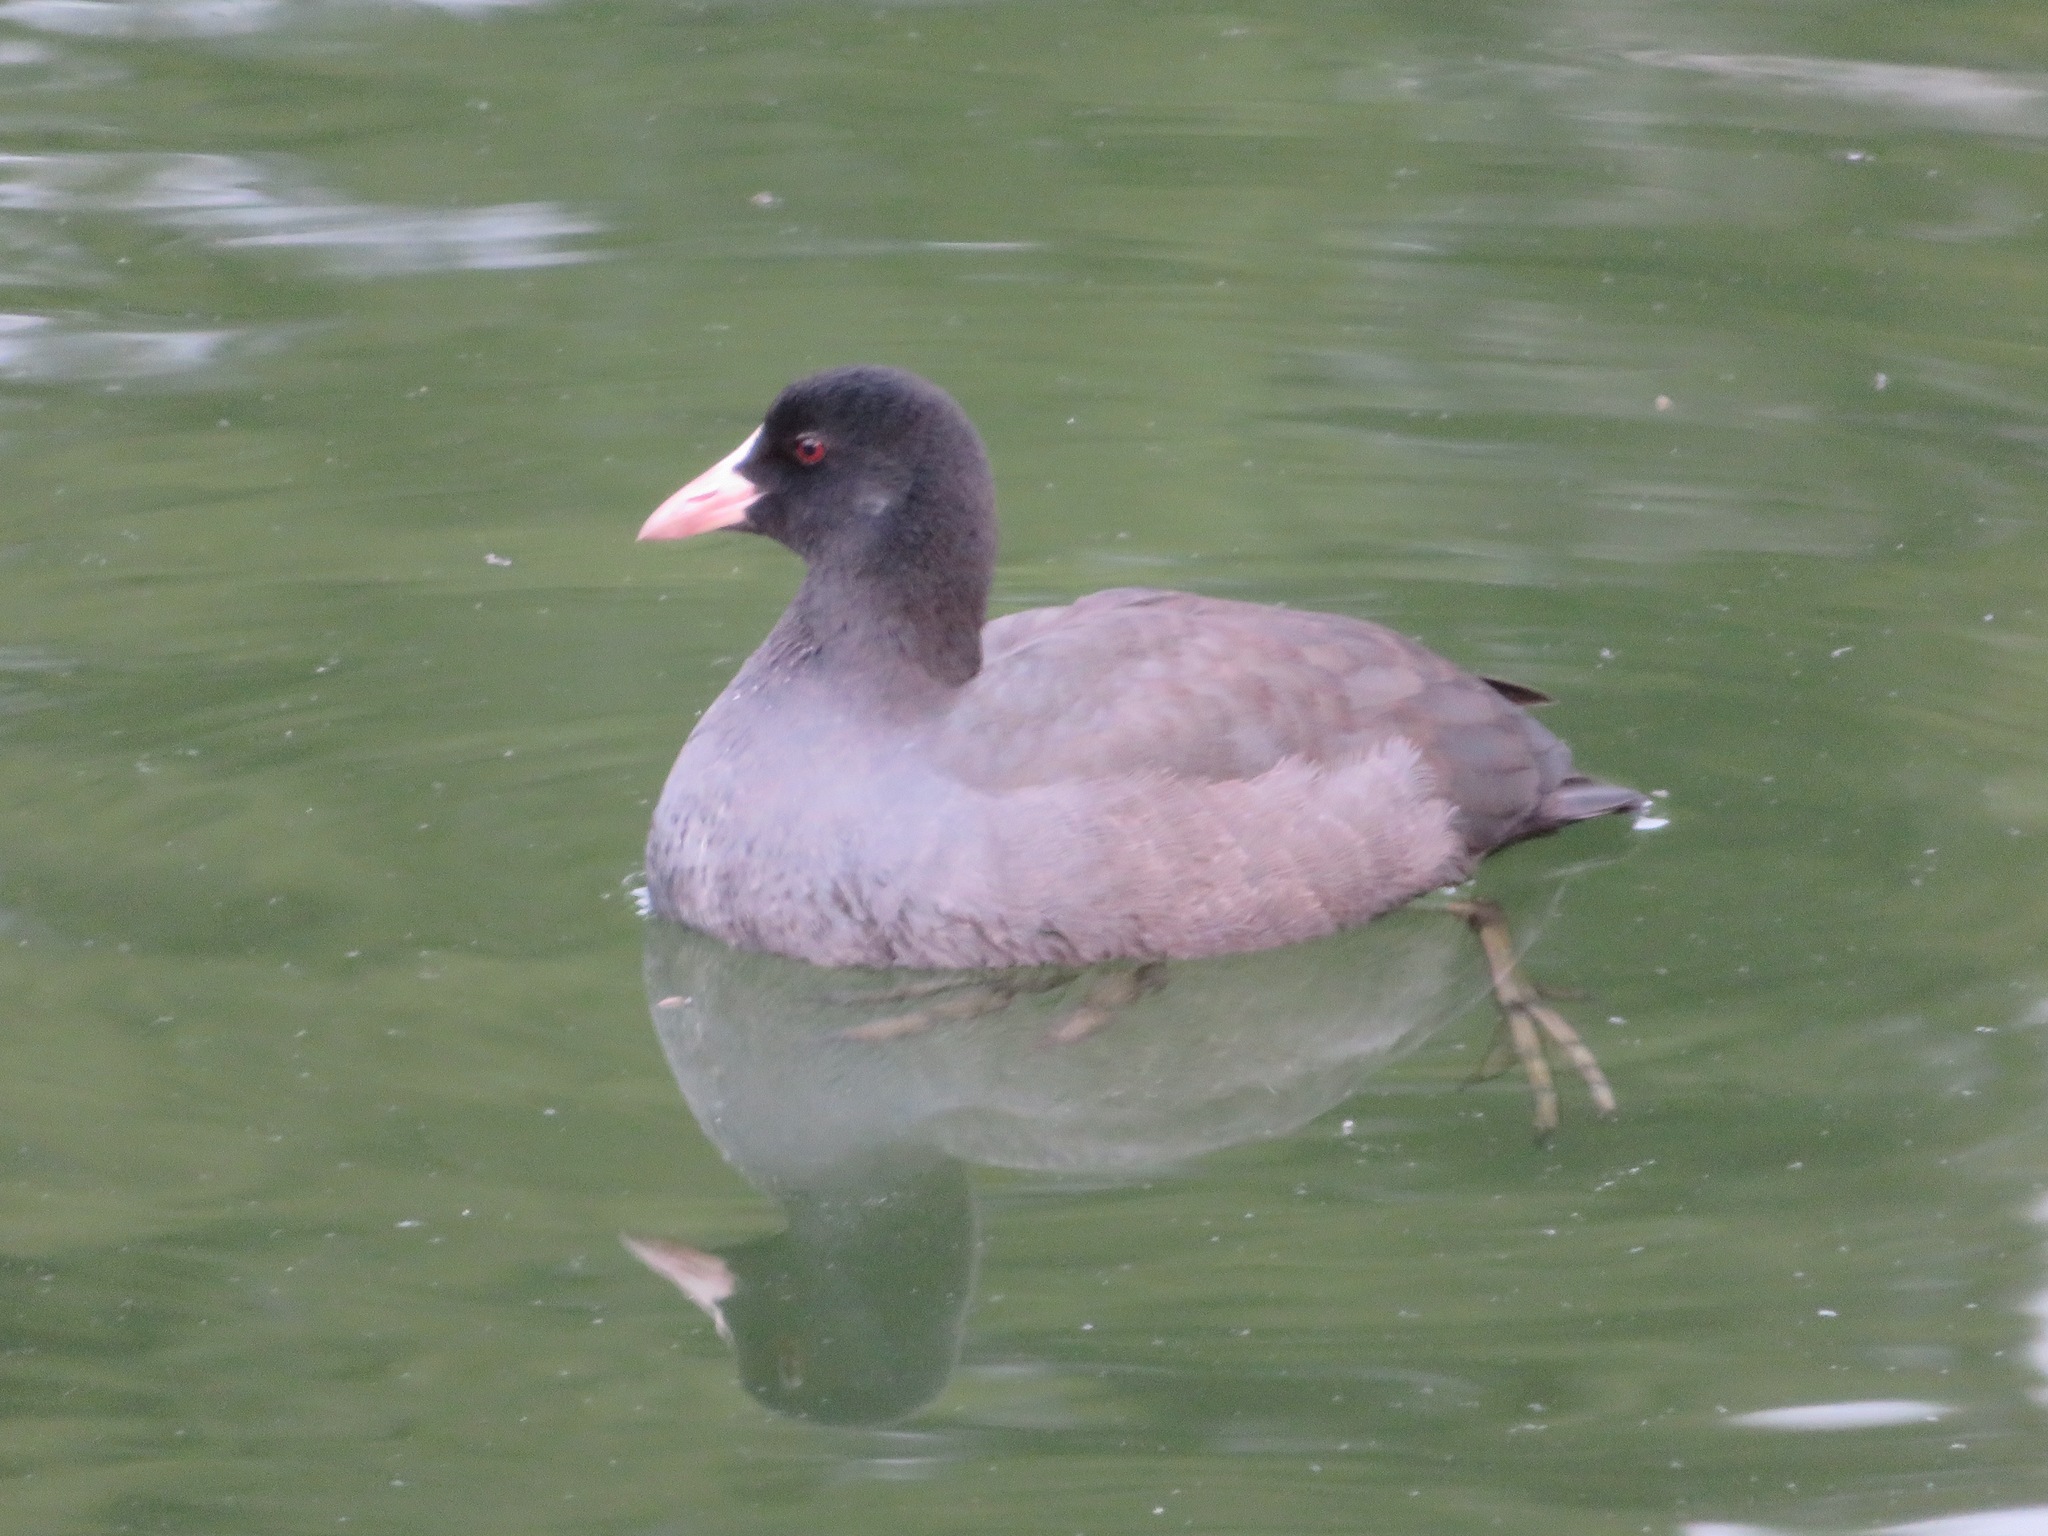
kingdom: Animalia
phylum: Chordata
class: Aves
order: Gruiformes
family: Rallidae
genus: Fulica
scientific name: Fulica atra
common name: Eurasian coot
